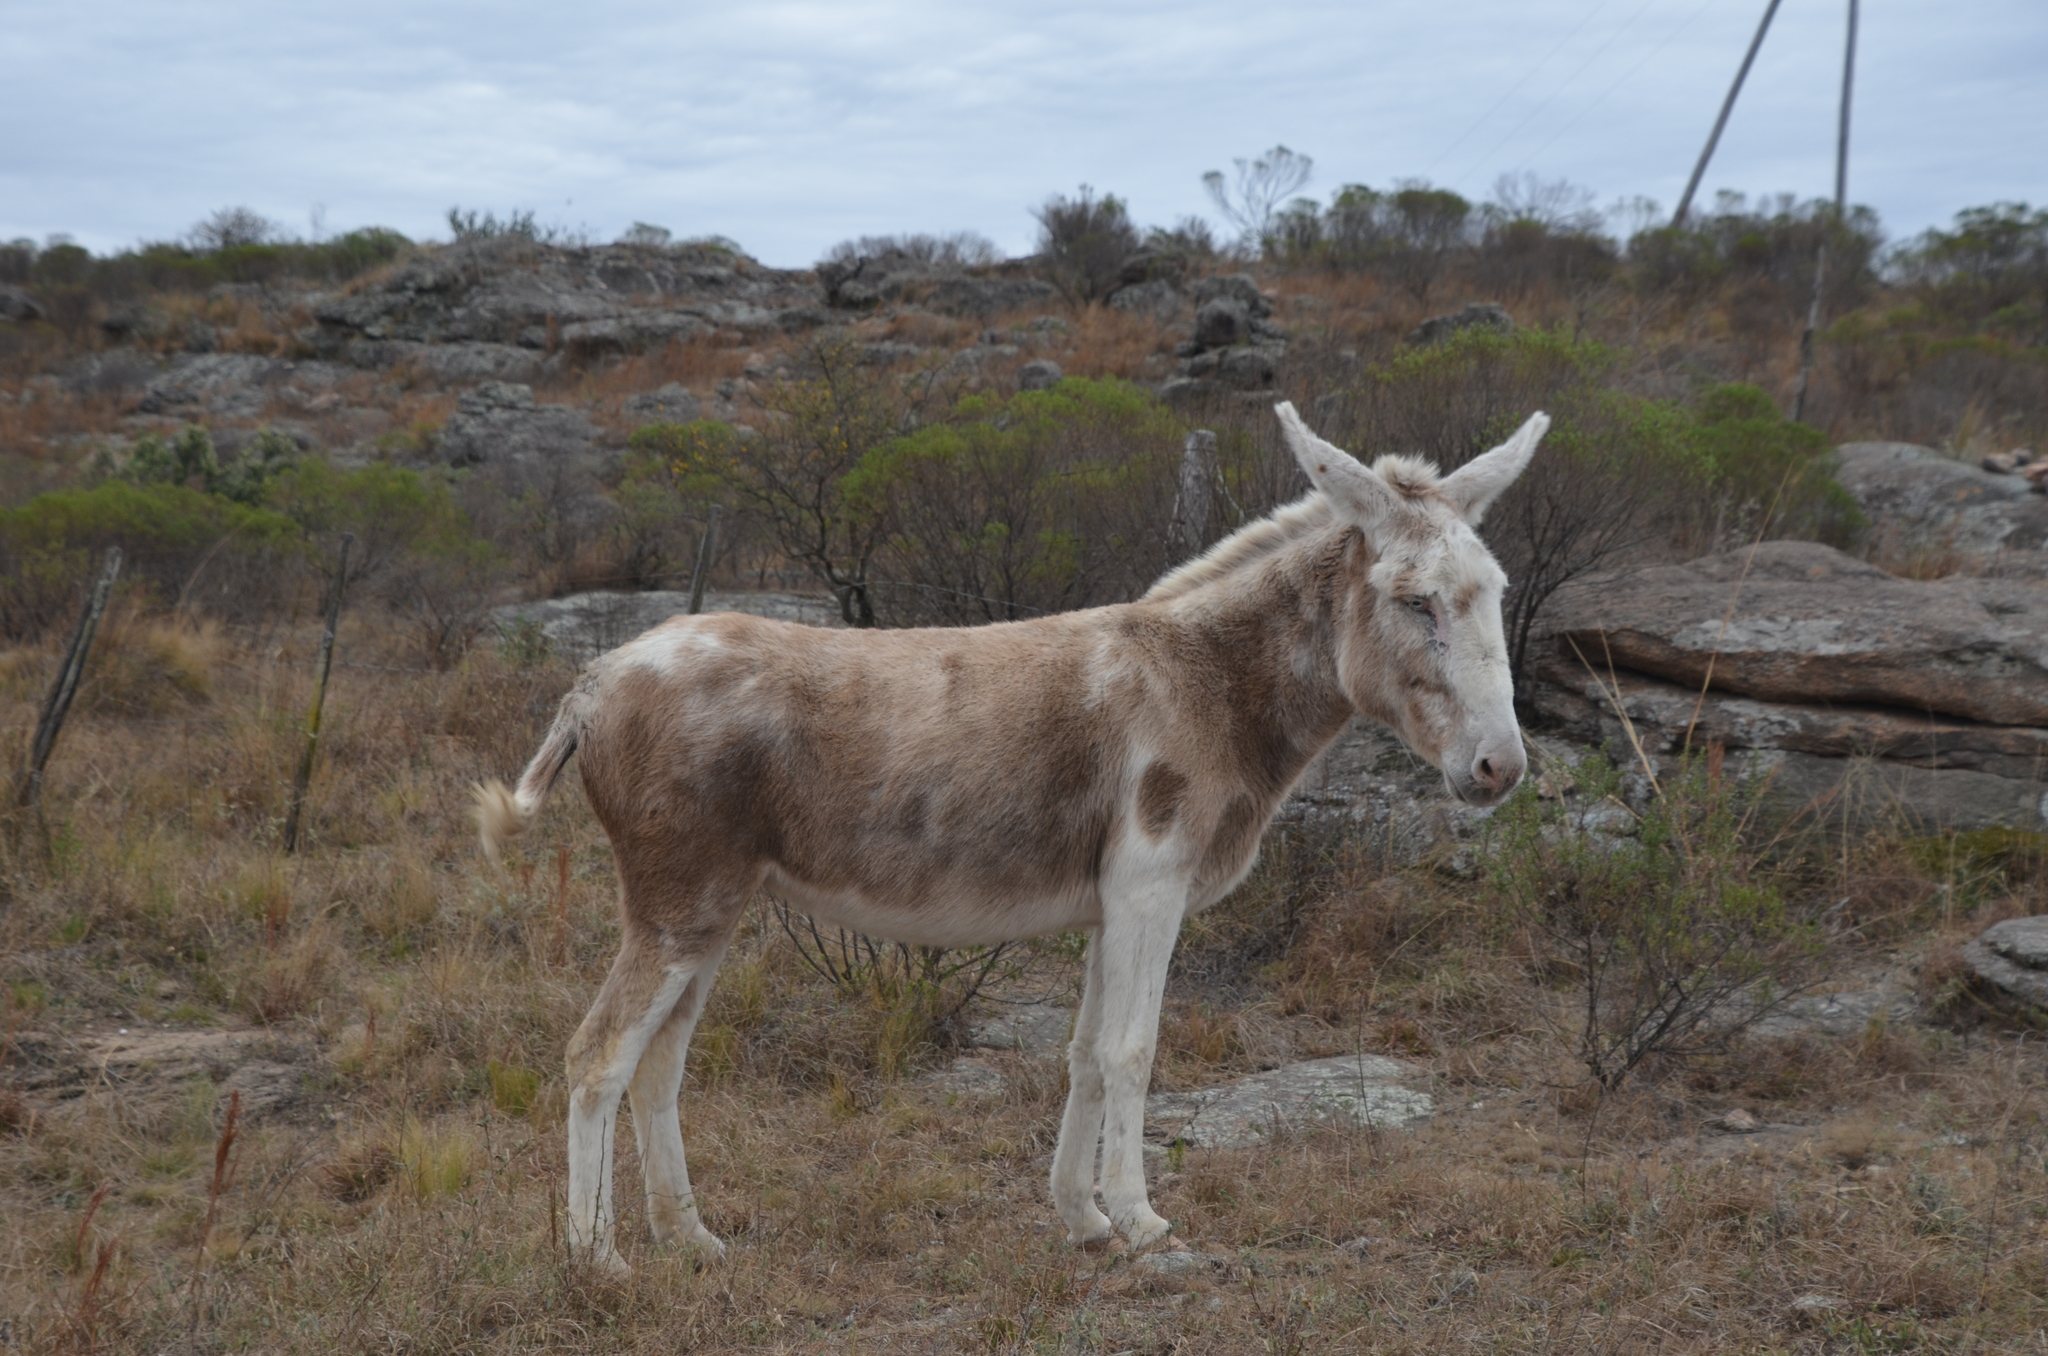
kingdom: Animalia
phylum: Chordata
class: Mammalia
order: Perissodactyla
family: Equidae
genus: Equus
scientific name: Equus asinus
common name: Ass
